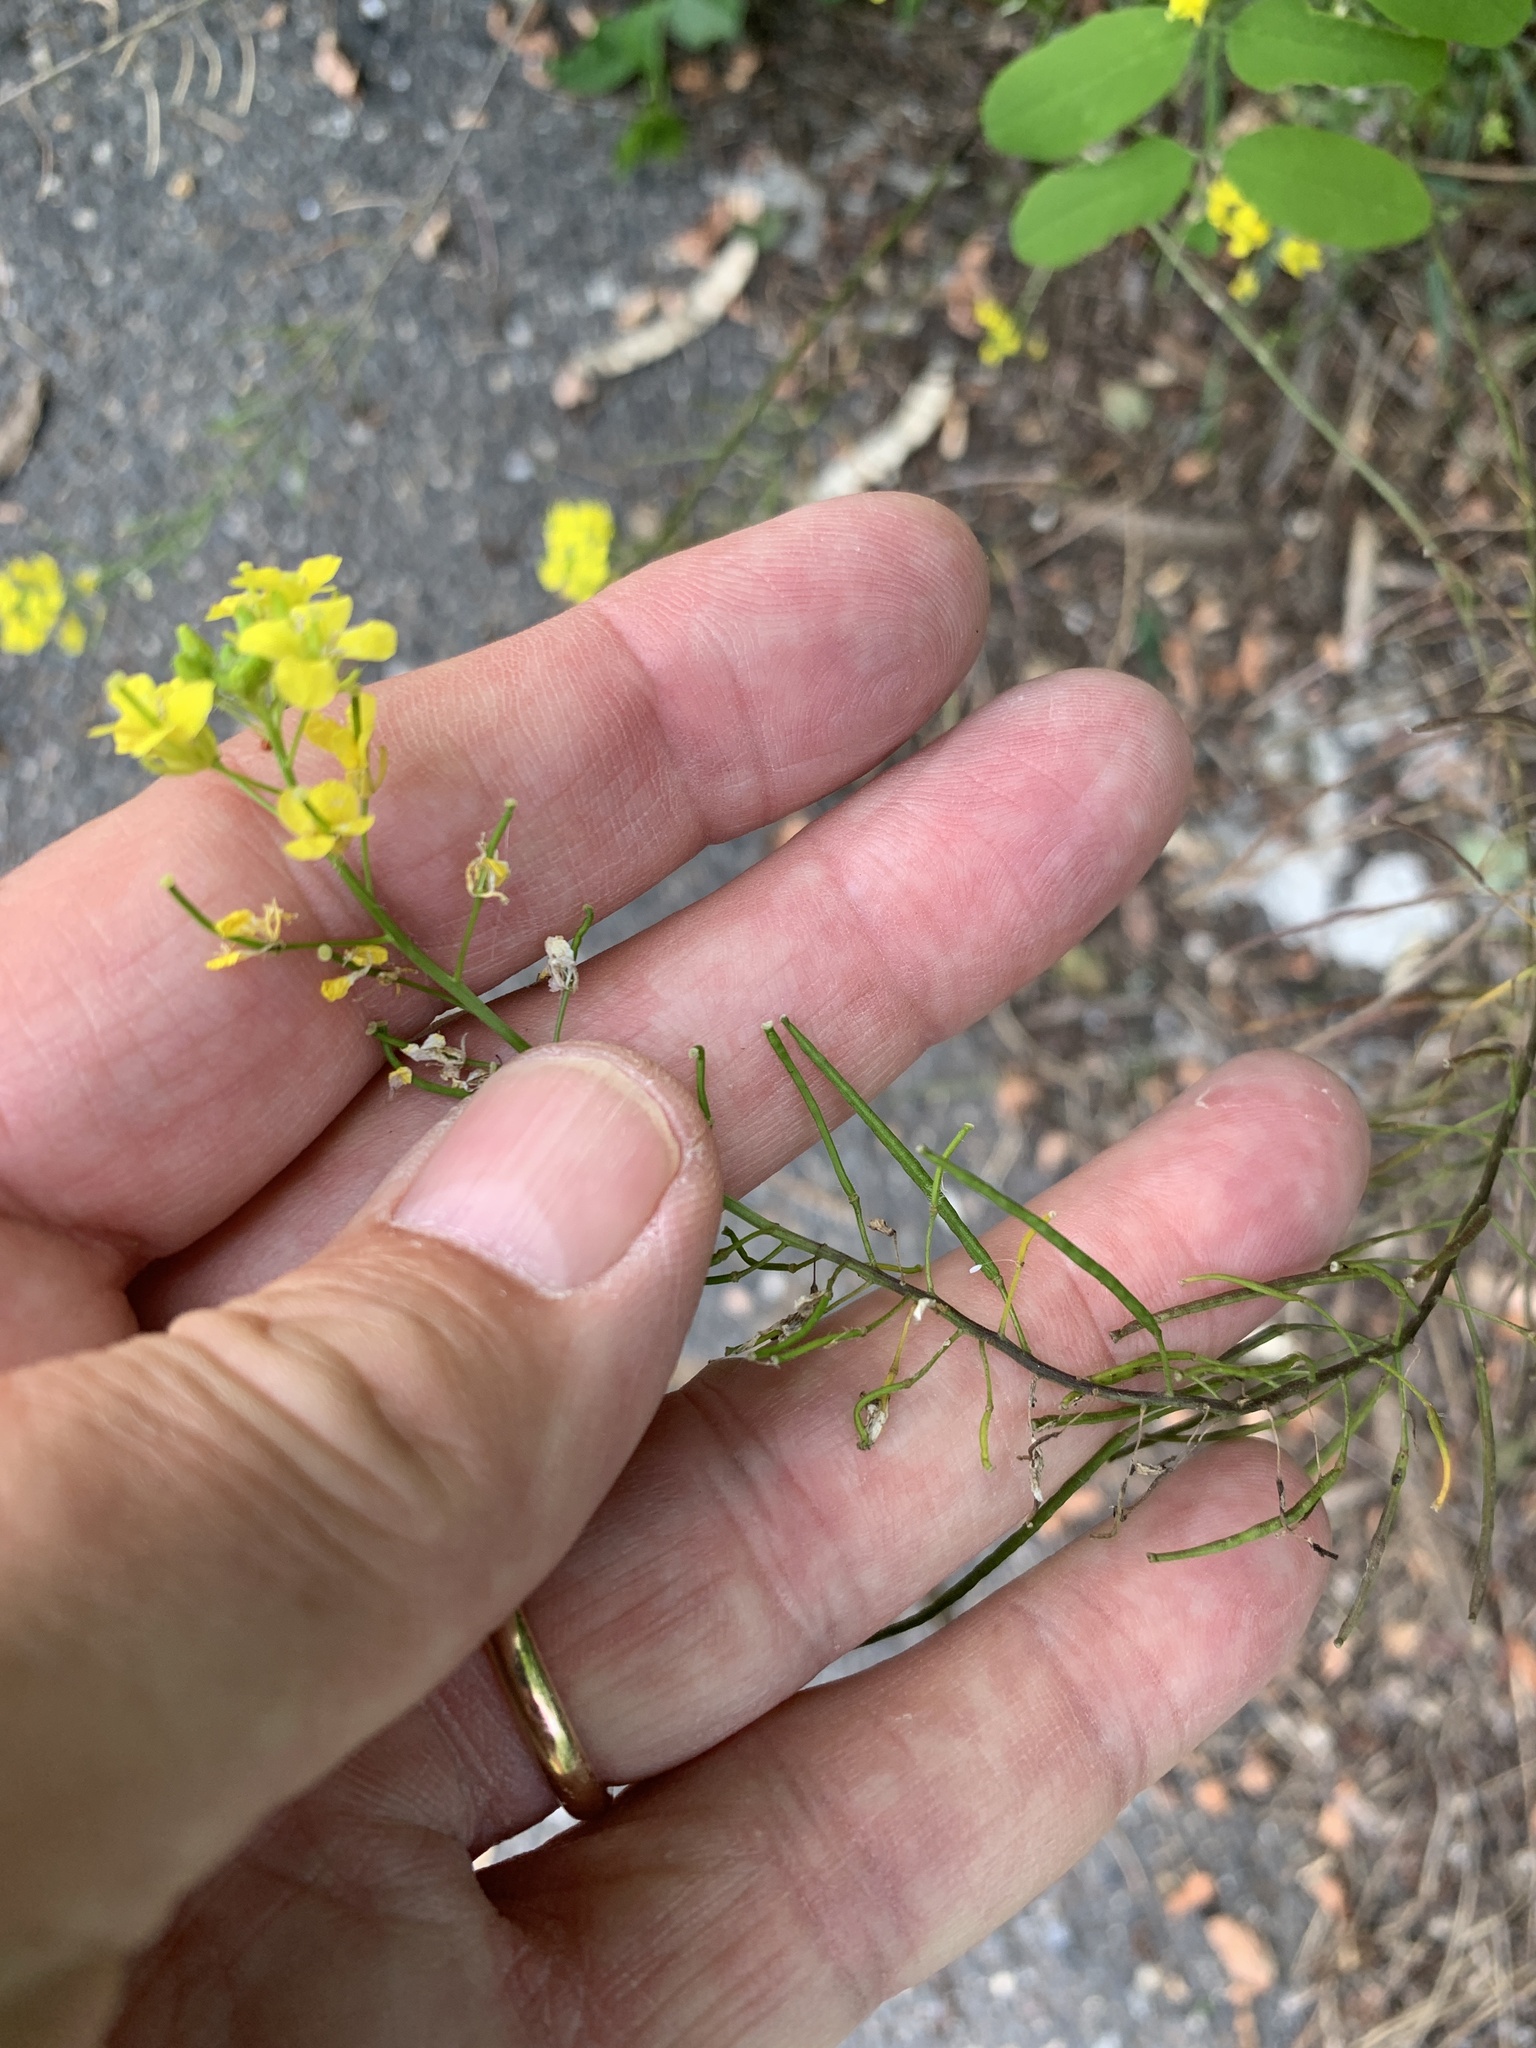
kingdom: Plantae
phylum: Tracheophyta
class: Magnoliopsida
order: Brassicales
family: Brassicaceae
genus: Sisymbrium
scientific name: Sisymbrium loeselii
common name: False london-rocket
